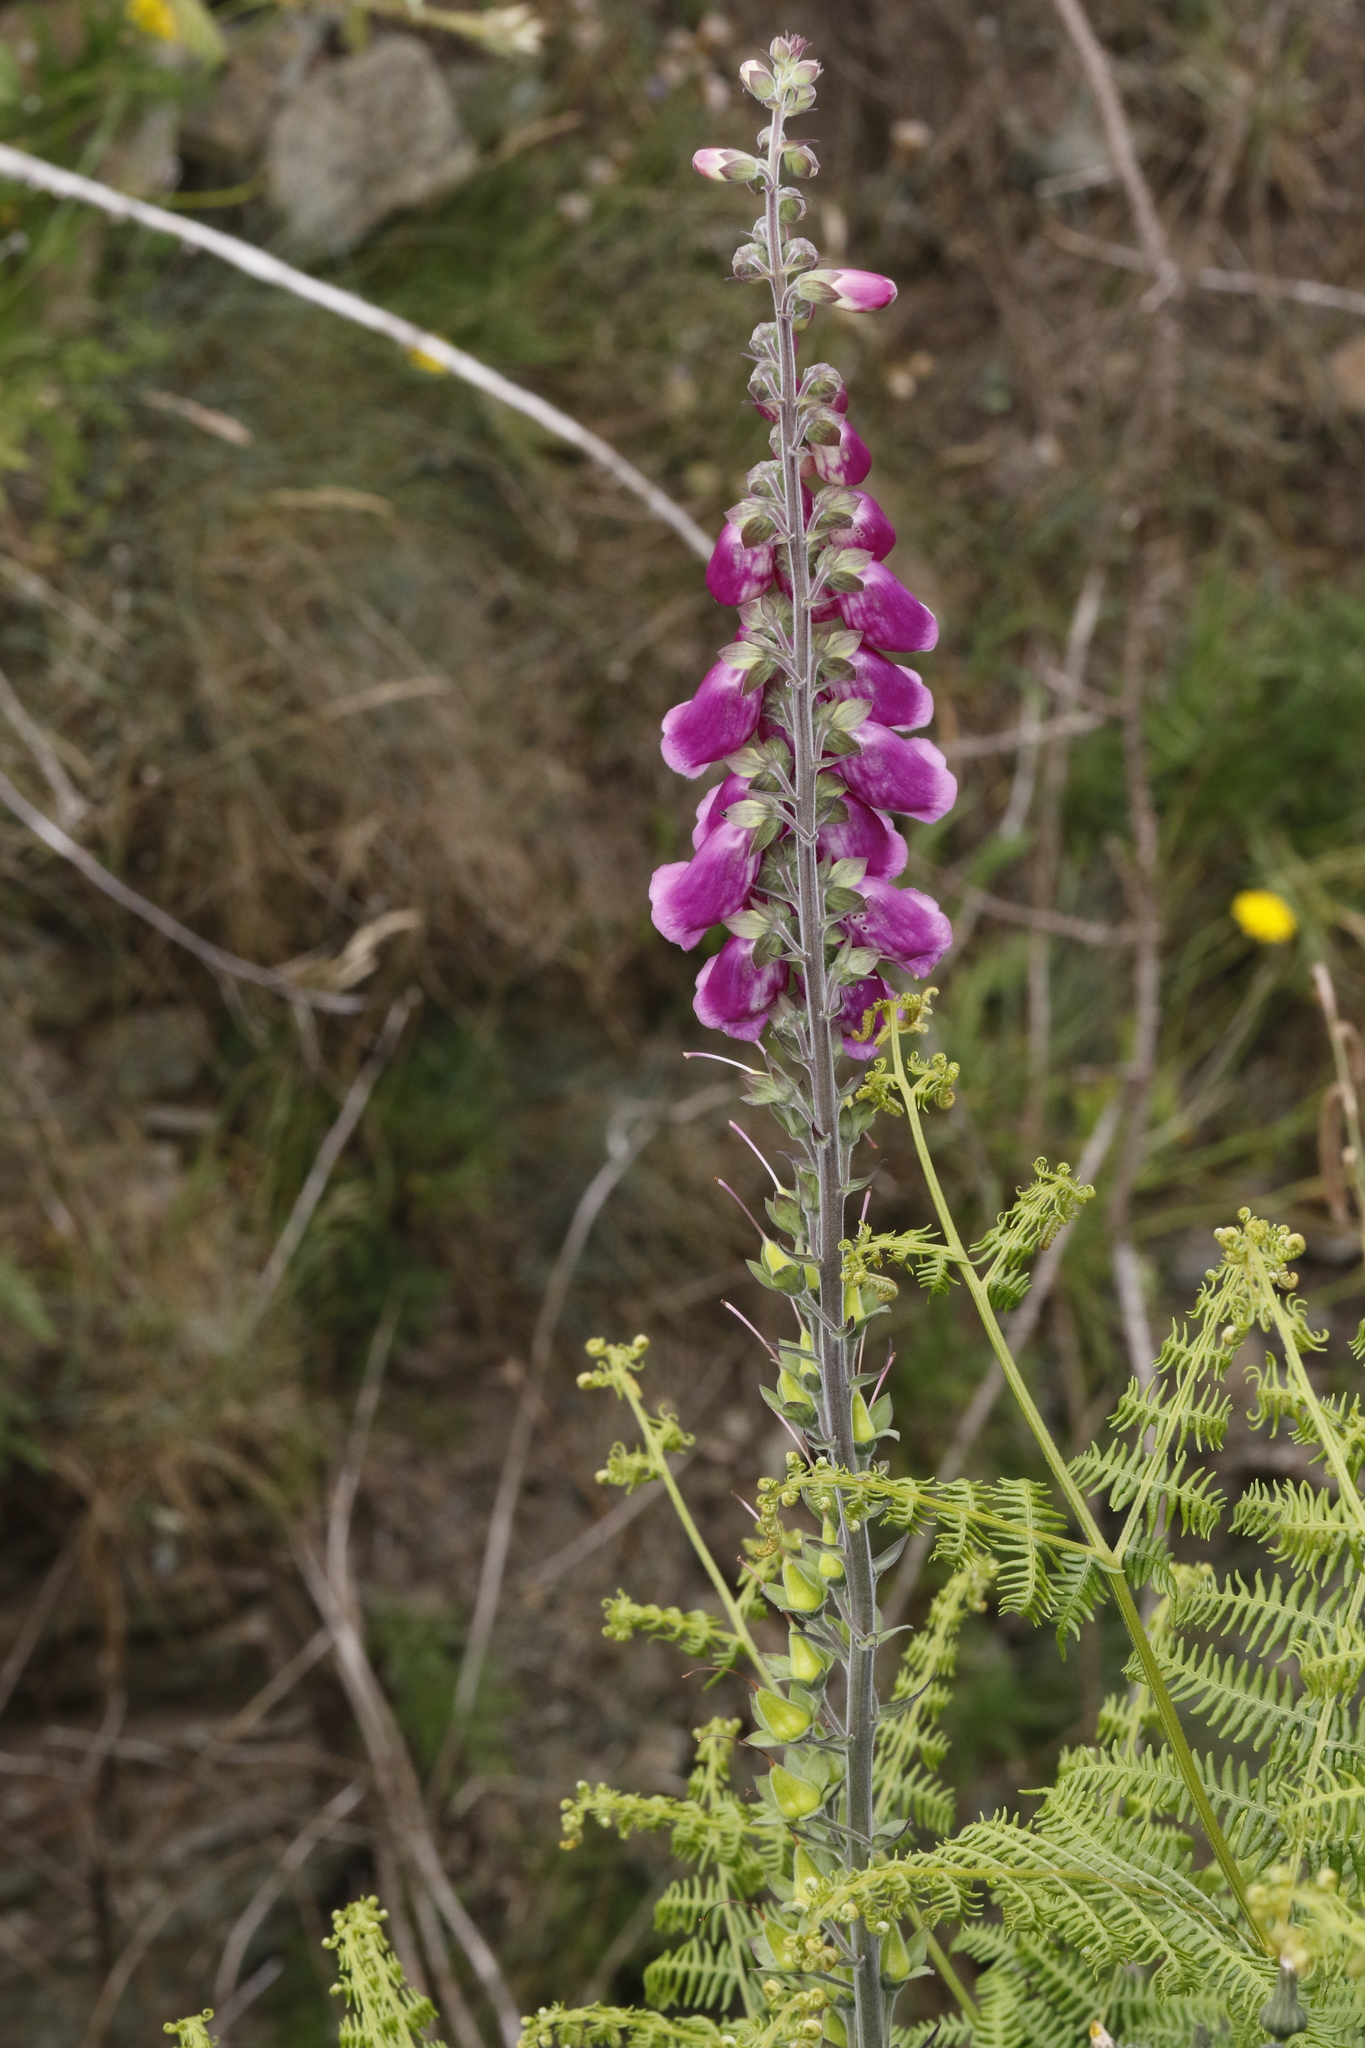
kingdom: Plantae
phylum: Tracheophyta
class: Magnoliopsida
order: Lamiales
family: Plantaginaceae
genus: Digitalis
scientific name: Digitalis purpurea
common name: Foxglove
